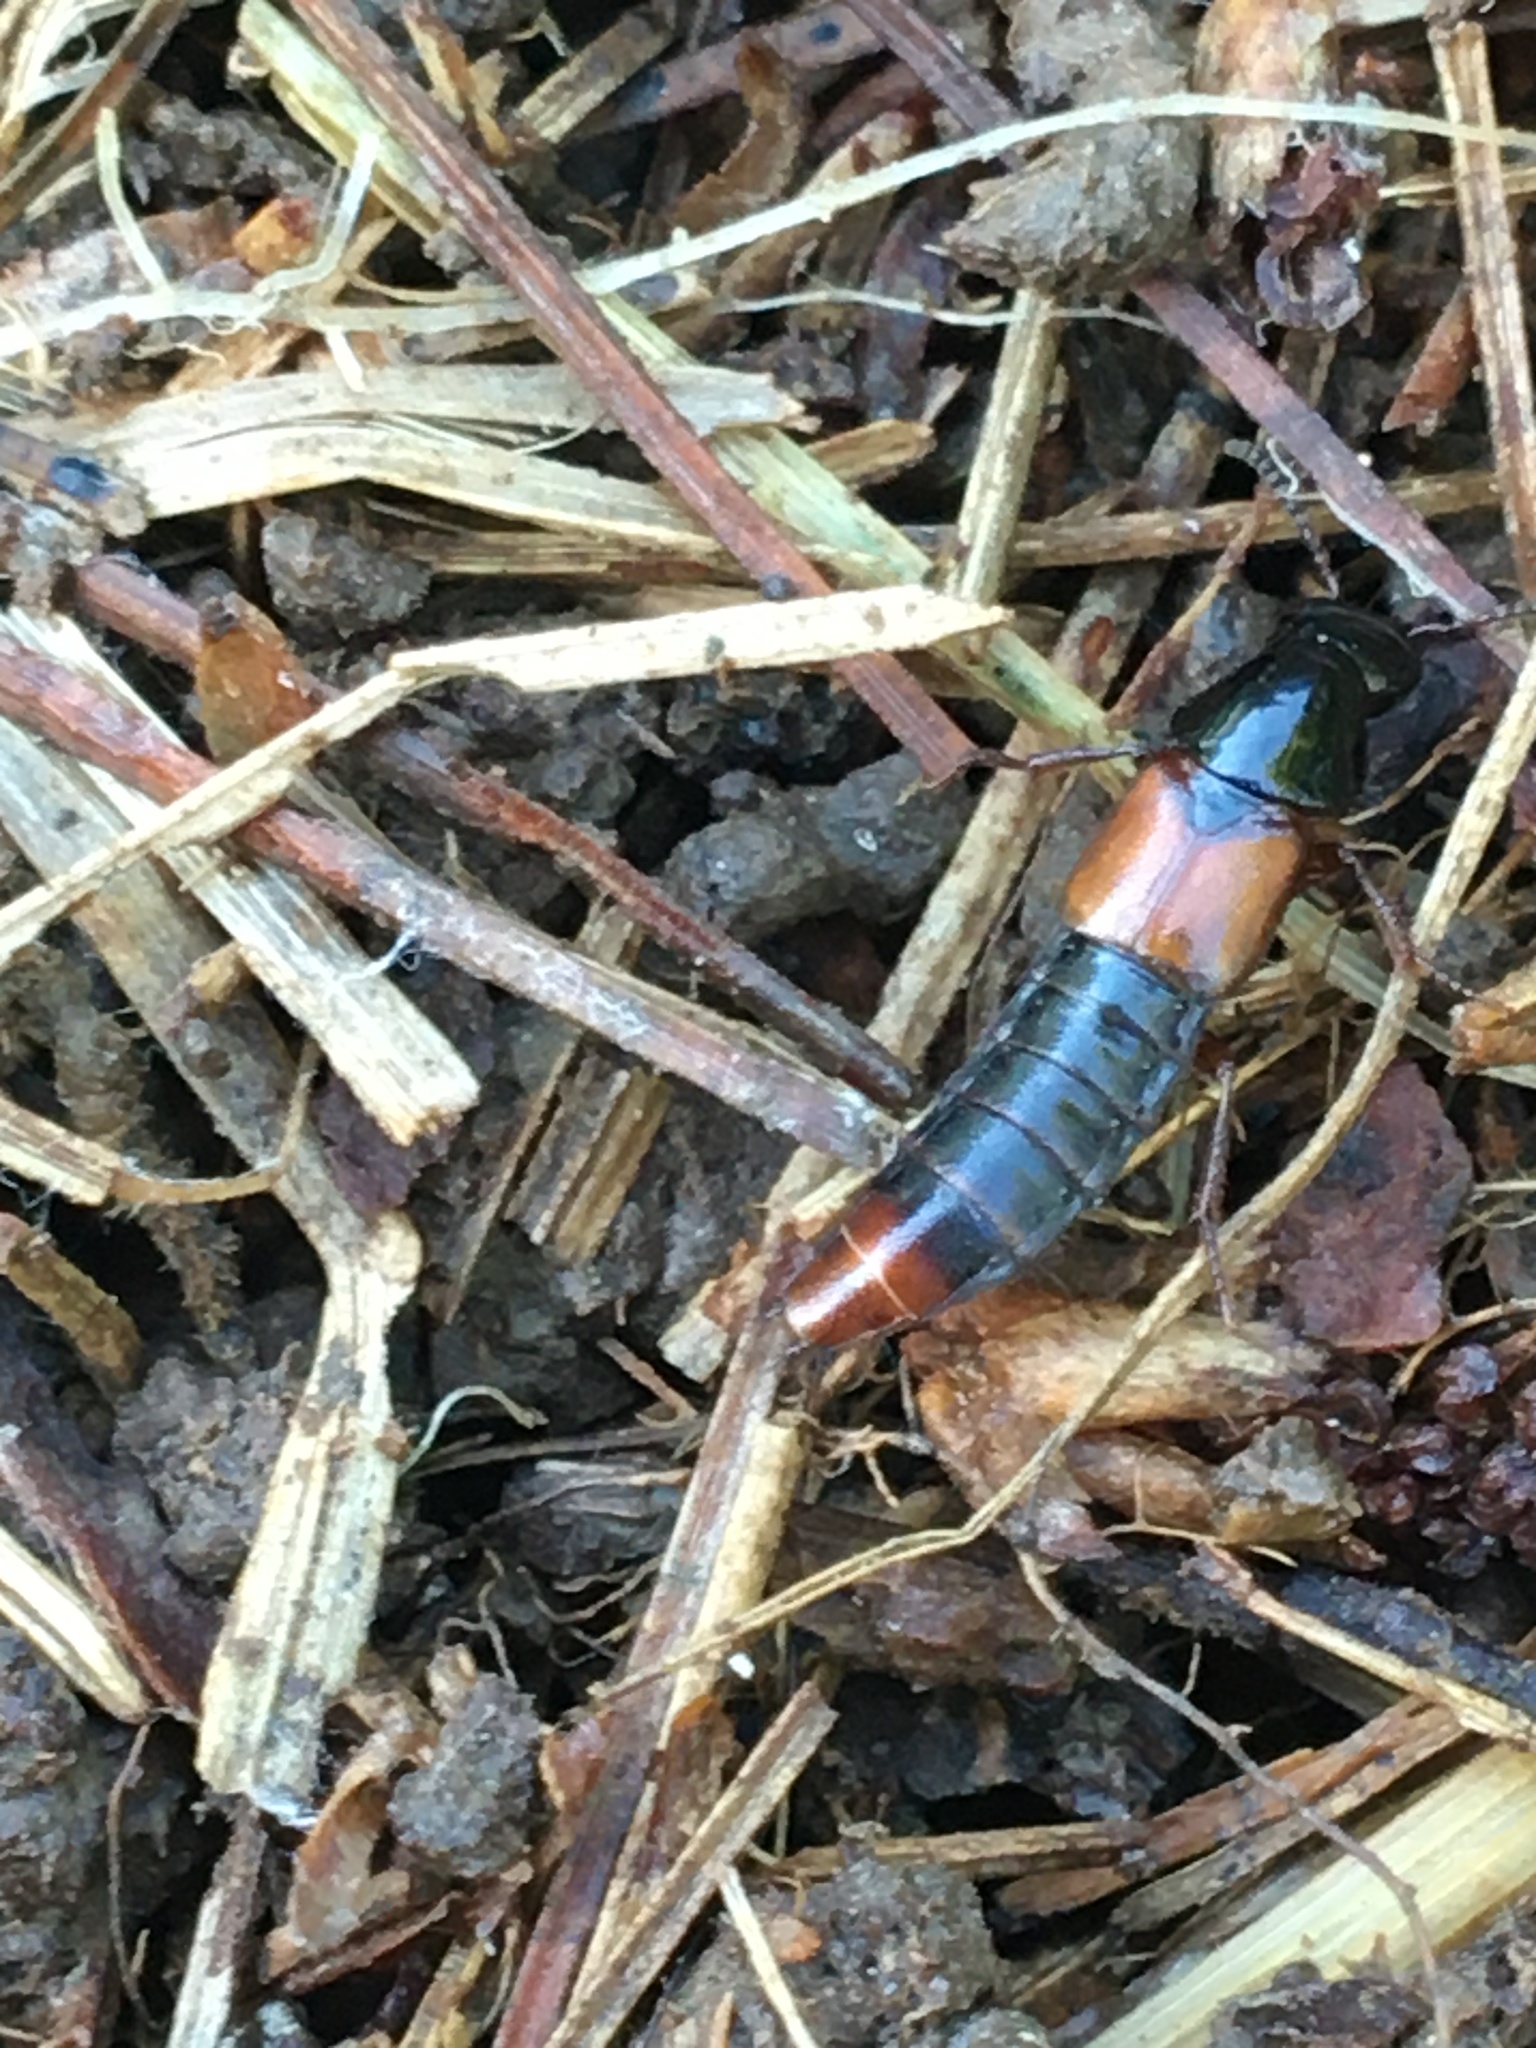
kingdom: Animalia
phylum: Arthropoda
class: Insecta
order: Coleoptera
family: Staphylinidae
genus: Quedius
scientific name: Quedius cruentus
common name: Rove beetle
